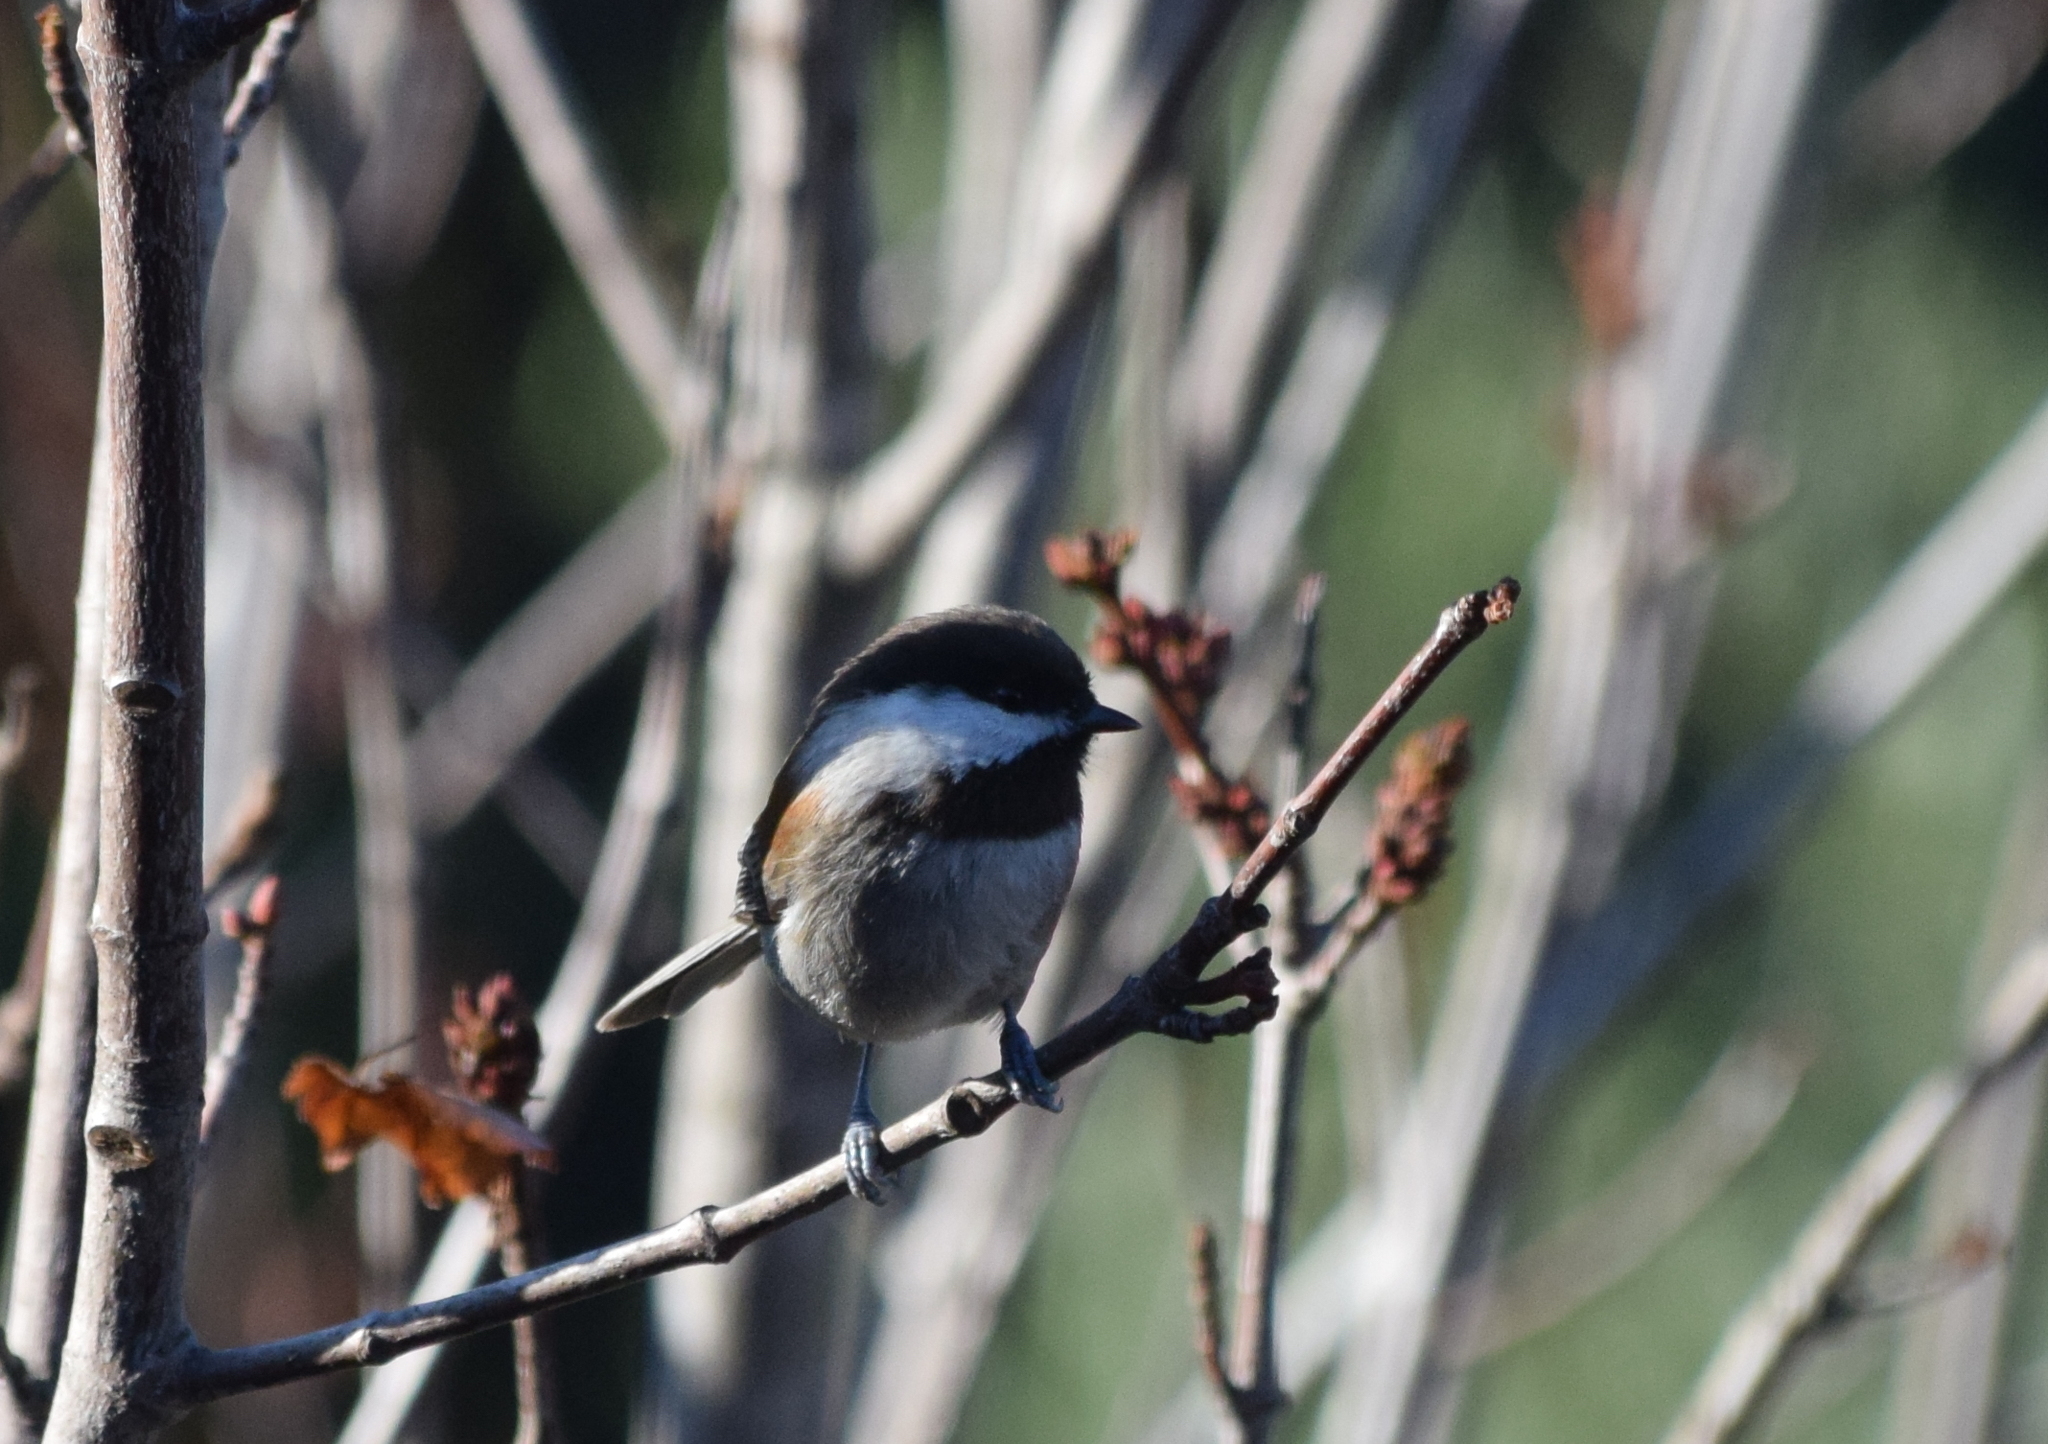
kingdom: Animalia
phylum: Chordata
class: Aves
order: Passeriformes
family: Paridae
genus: Poecile
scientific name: Poecile rufescens
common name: Chestnut-backed chickadee
